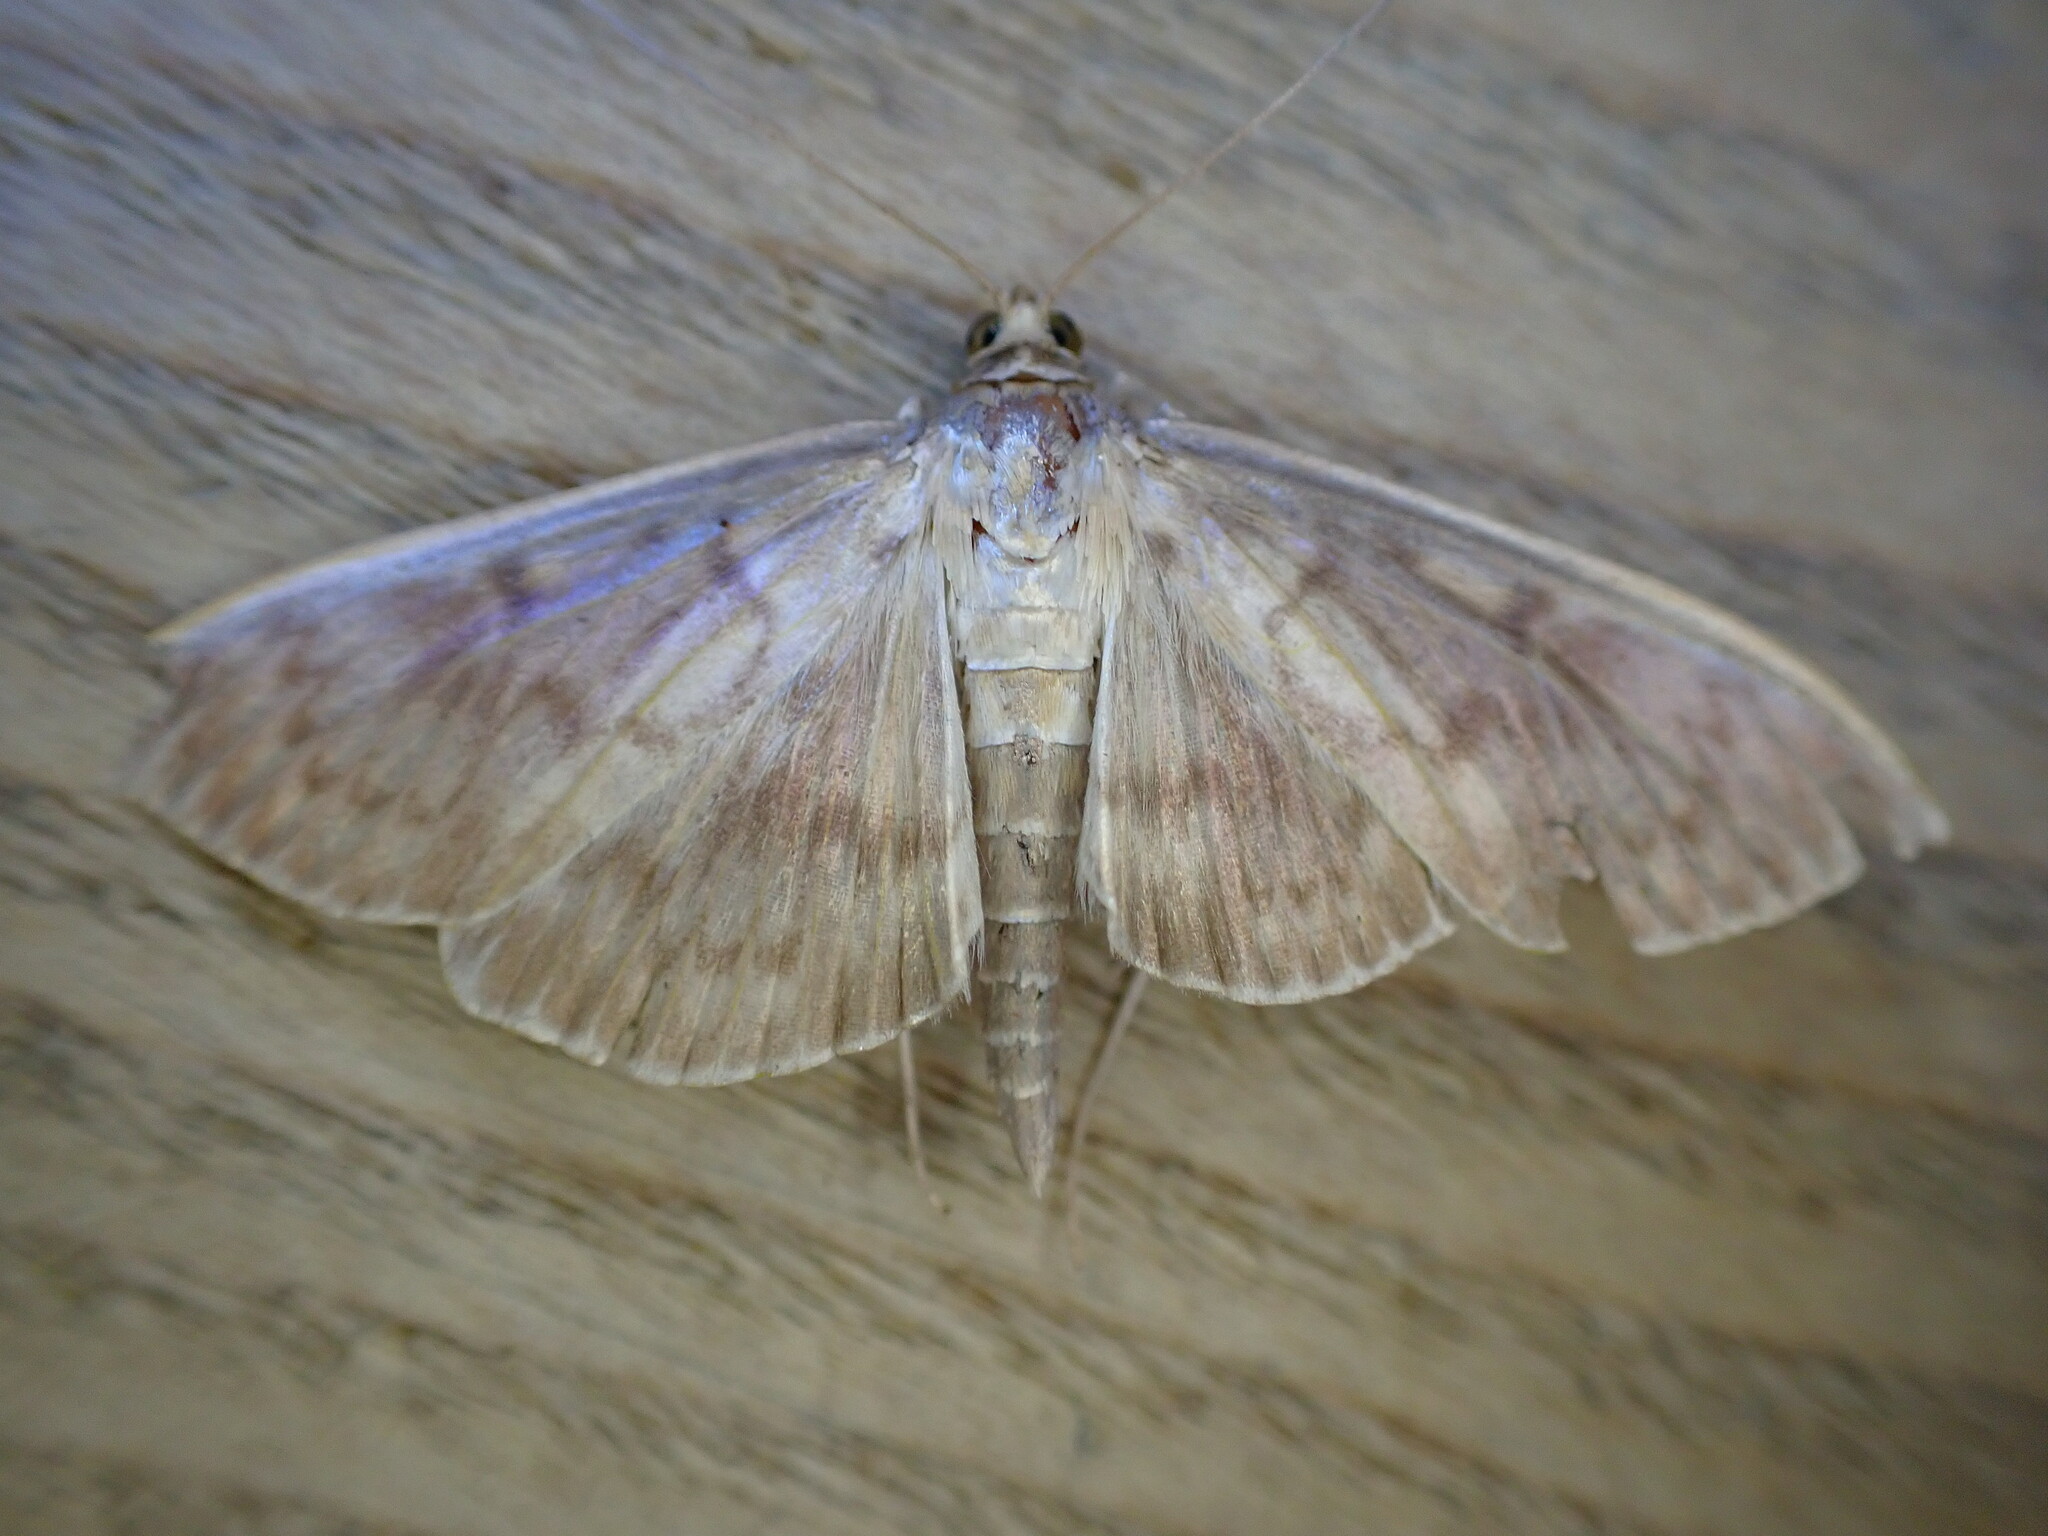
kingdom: Animalia
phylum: Arthropoda
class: Insecta
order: Lepidoptera
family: Crambidae
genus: Patania
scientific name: Patania ruralis
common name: Mother of pearl
